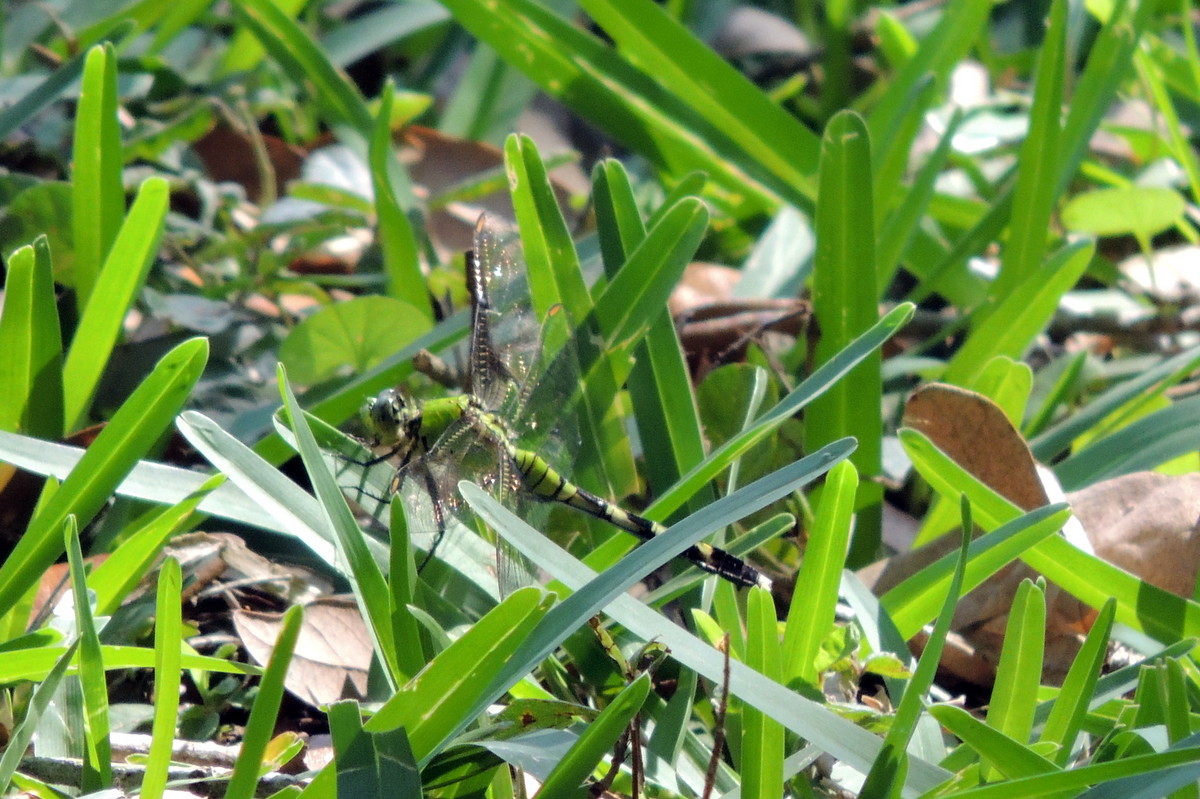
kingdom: Animalia
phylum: Arthropoda
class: Insecta
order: Odonata
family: Libellulidae
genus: Erythemis
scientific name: Erythemis simplicicollis
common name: Eastern pondhawk
